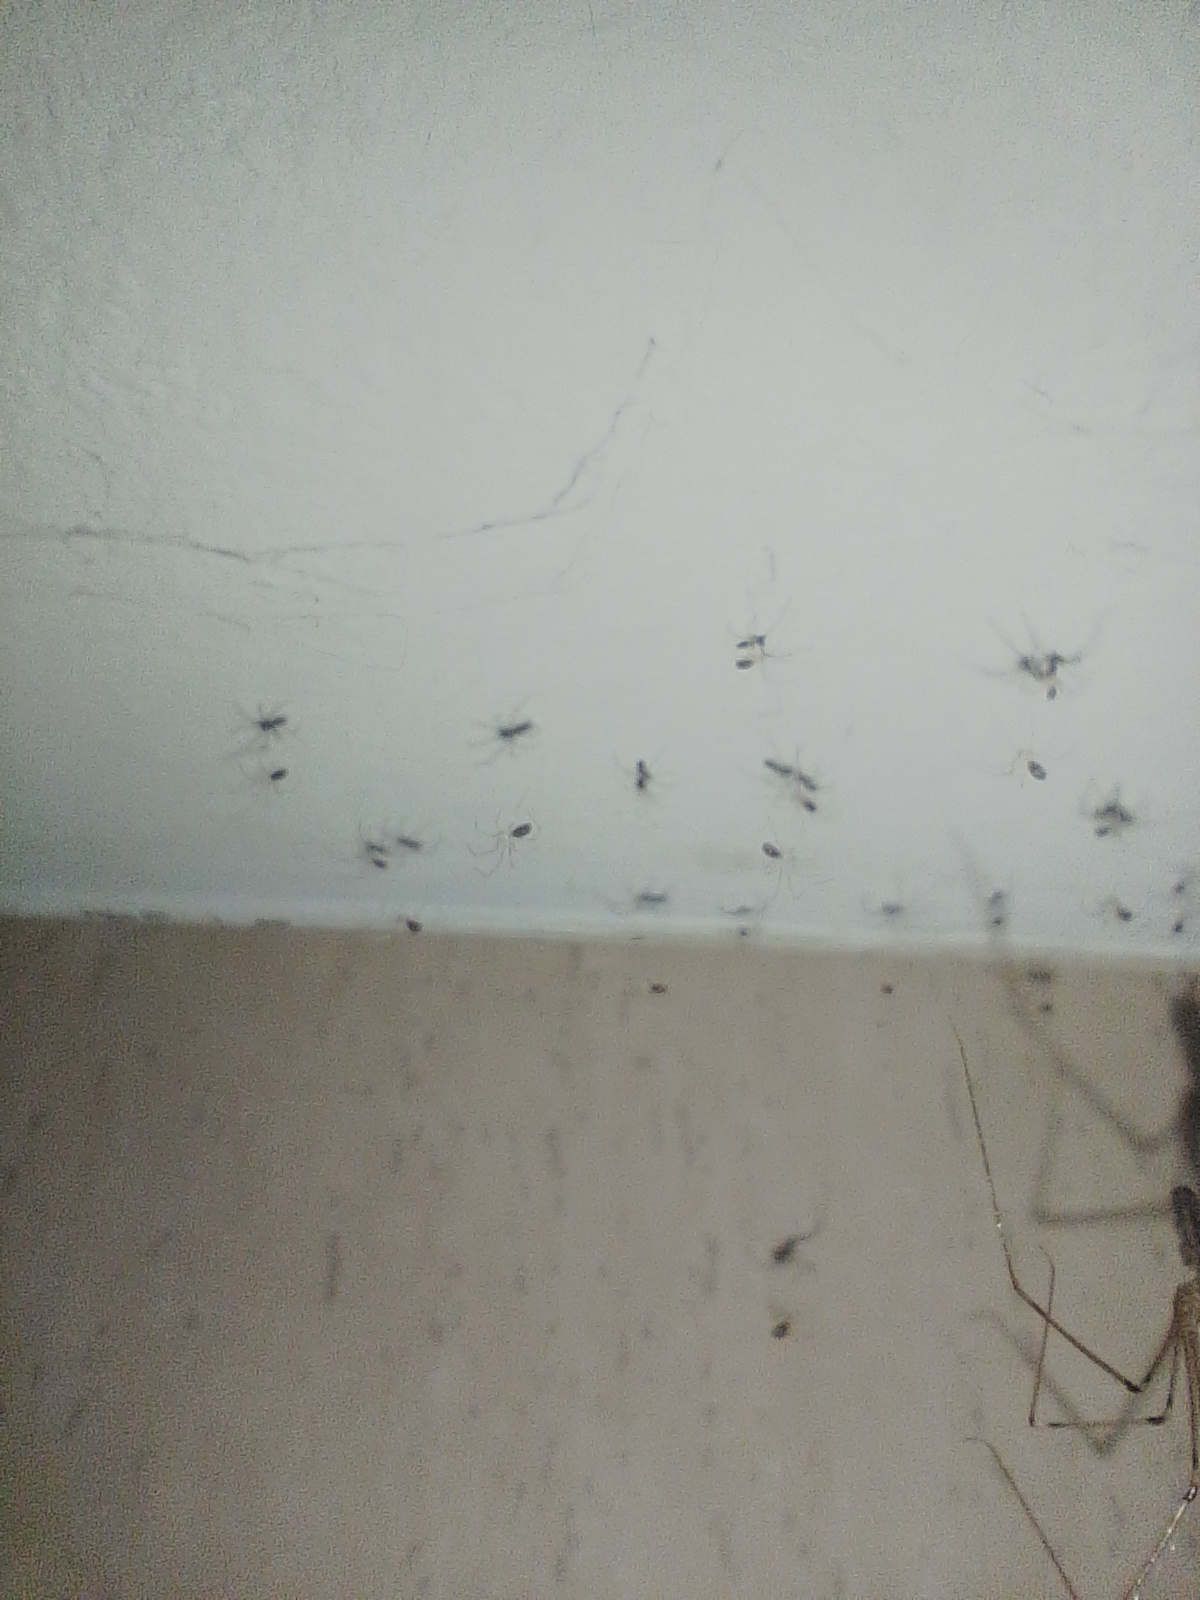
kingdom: Animalia
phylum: Arthropoda
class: Arachnida
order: Araneae
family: Pholcidae
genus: Pholcus
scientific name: Pholcus phalangioides
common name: Longbodied cellar spider
